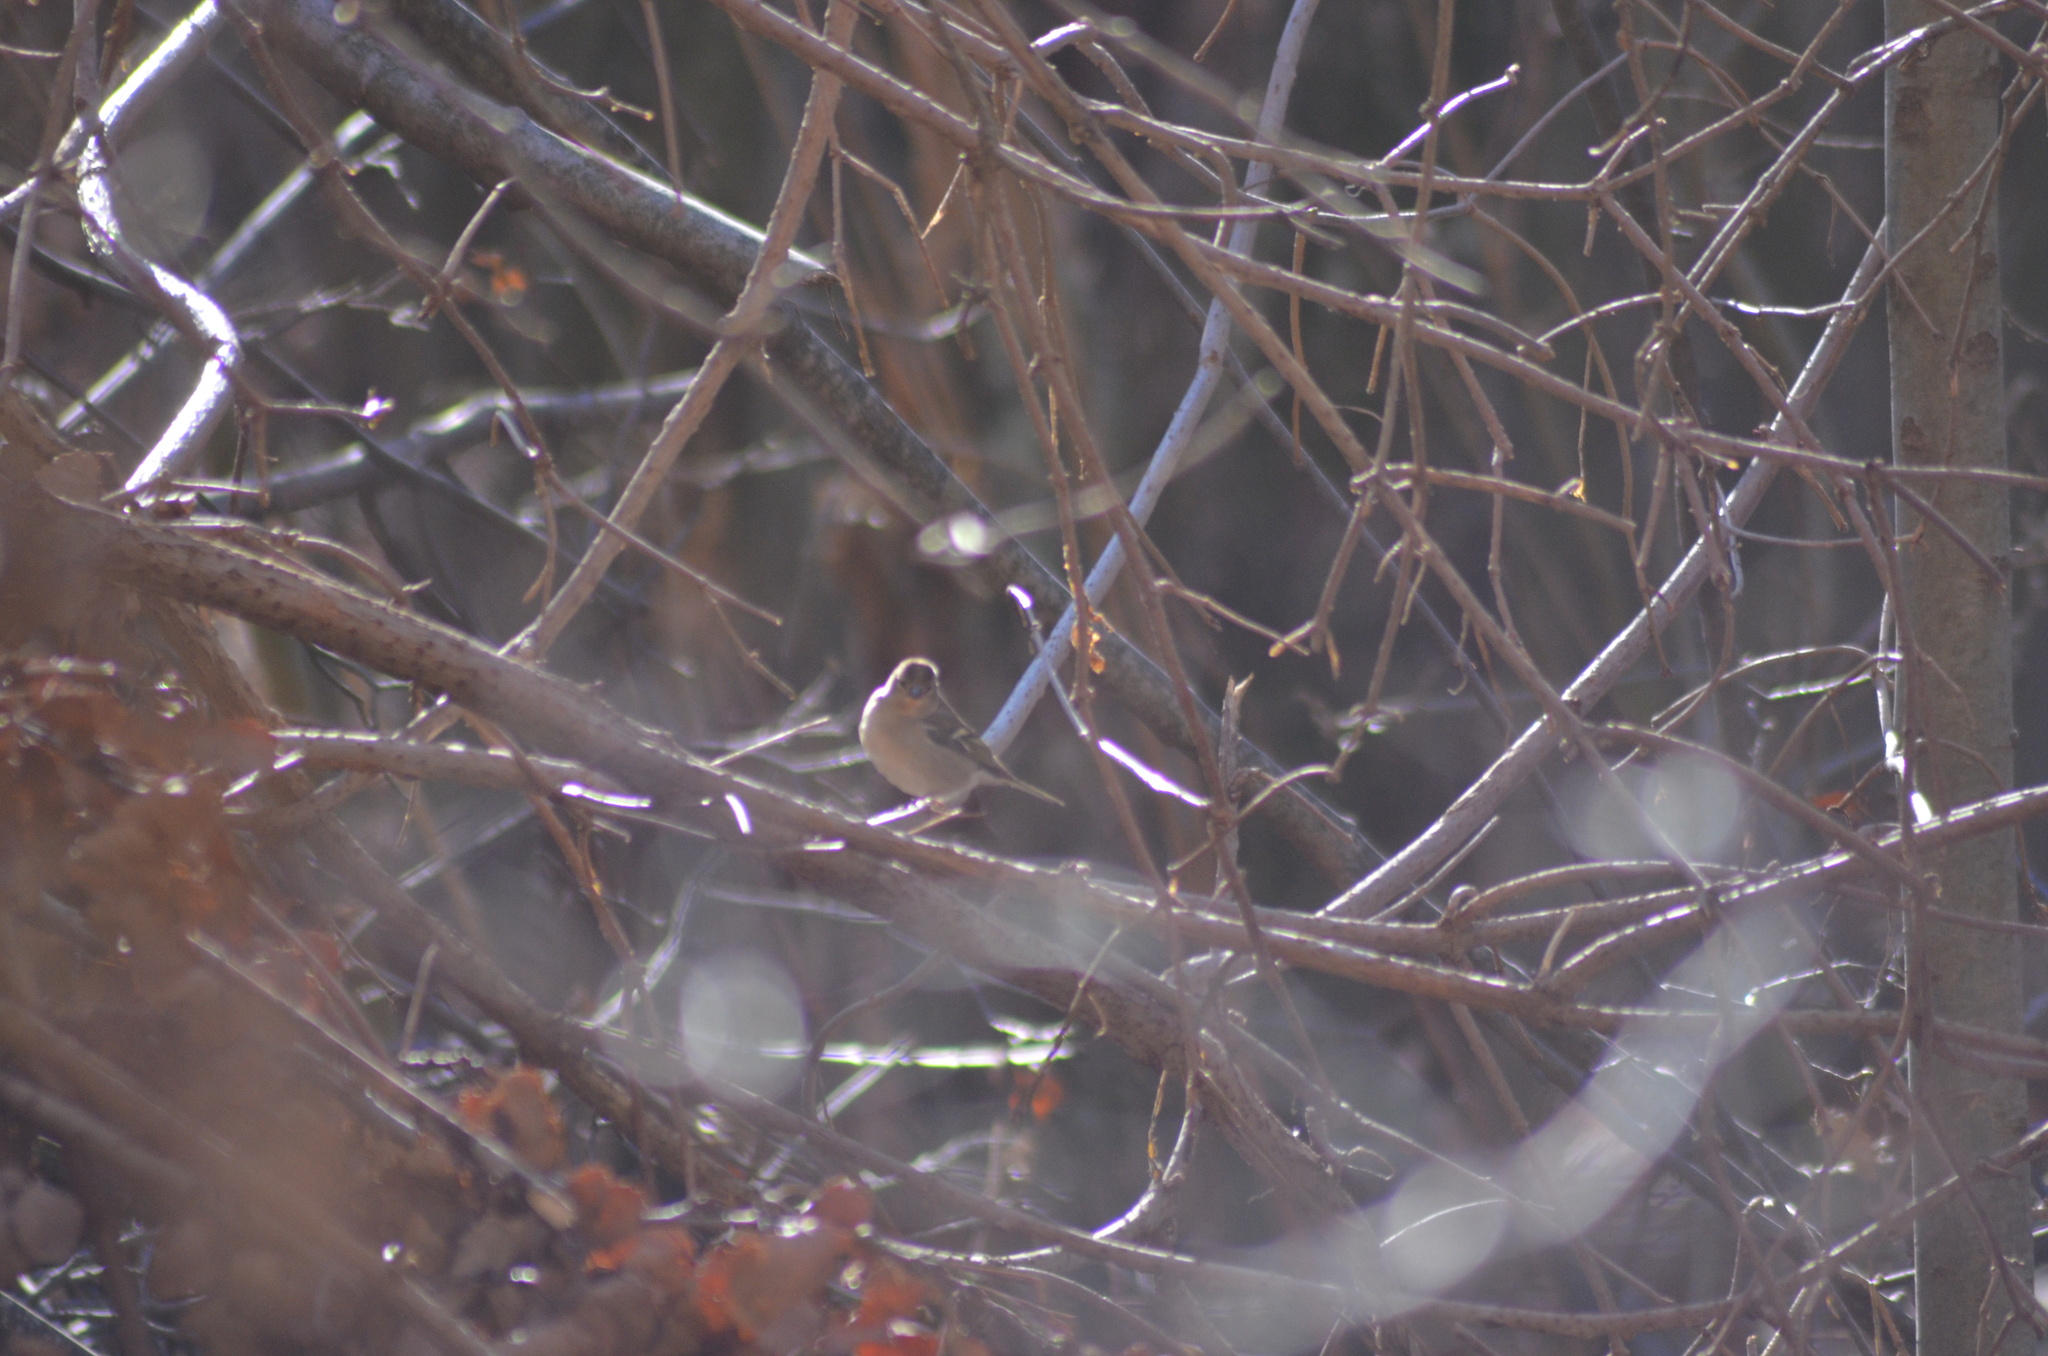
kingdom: Animalia
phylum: Chordata
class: Aves
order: Passeriformes
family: Fringillidae
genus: Fringilla
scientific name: Fringilla coelebs
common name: Common chaffinch
